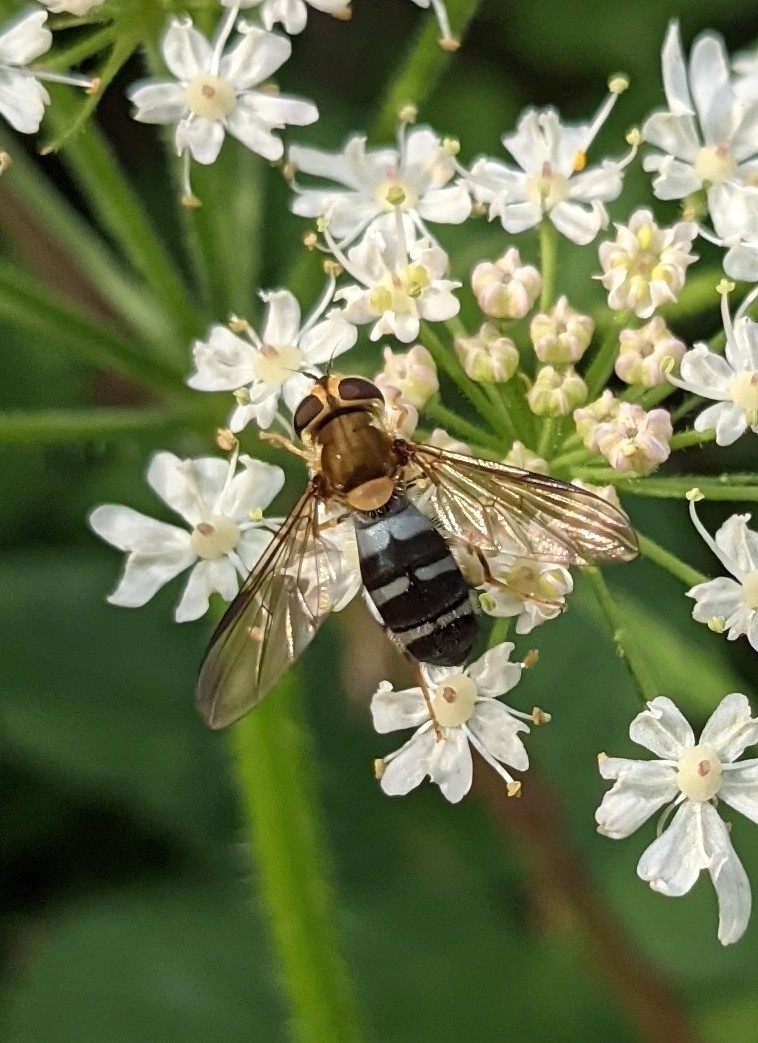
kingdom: Animalia
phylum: Arthropoda
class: Insecta
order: Diptera
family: Syrphidae
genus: Leucozona
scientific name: Leucozona glaucia
